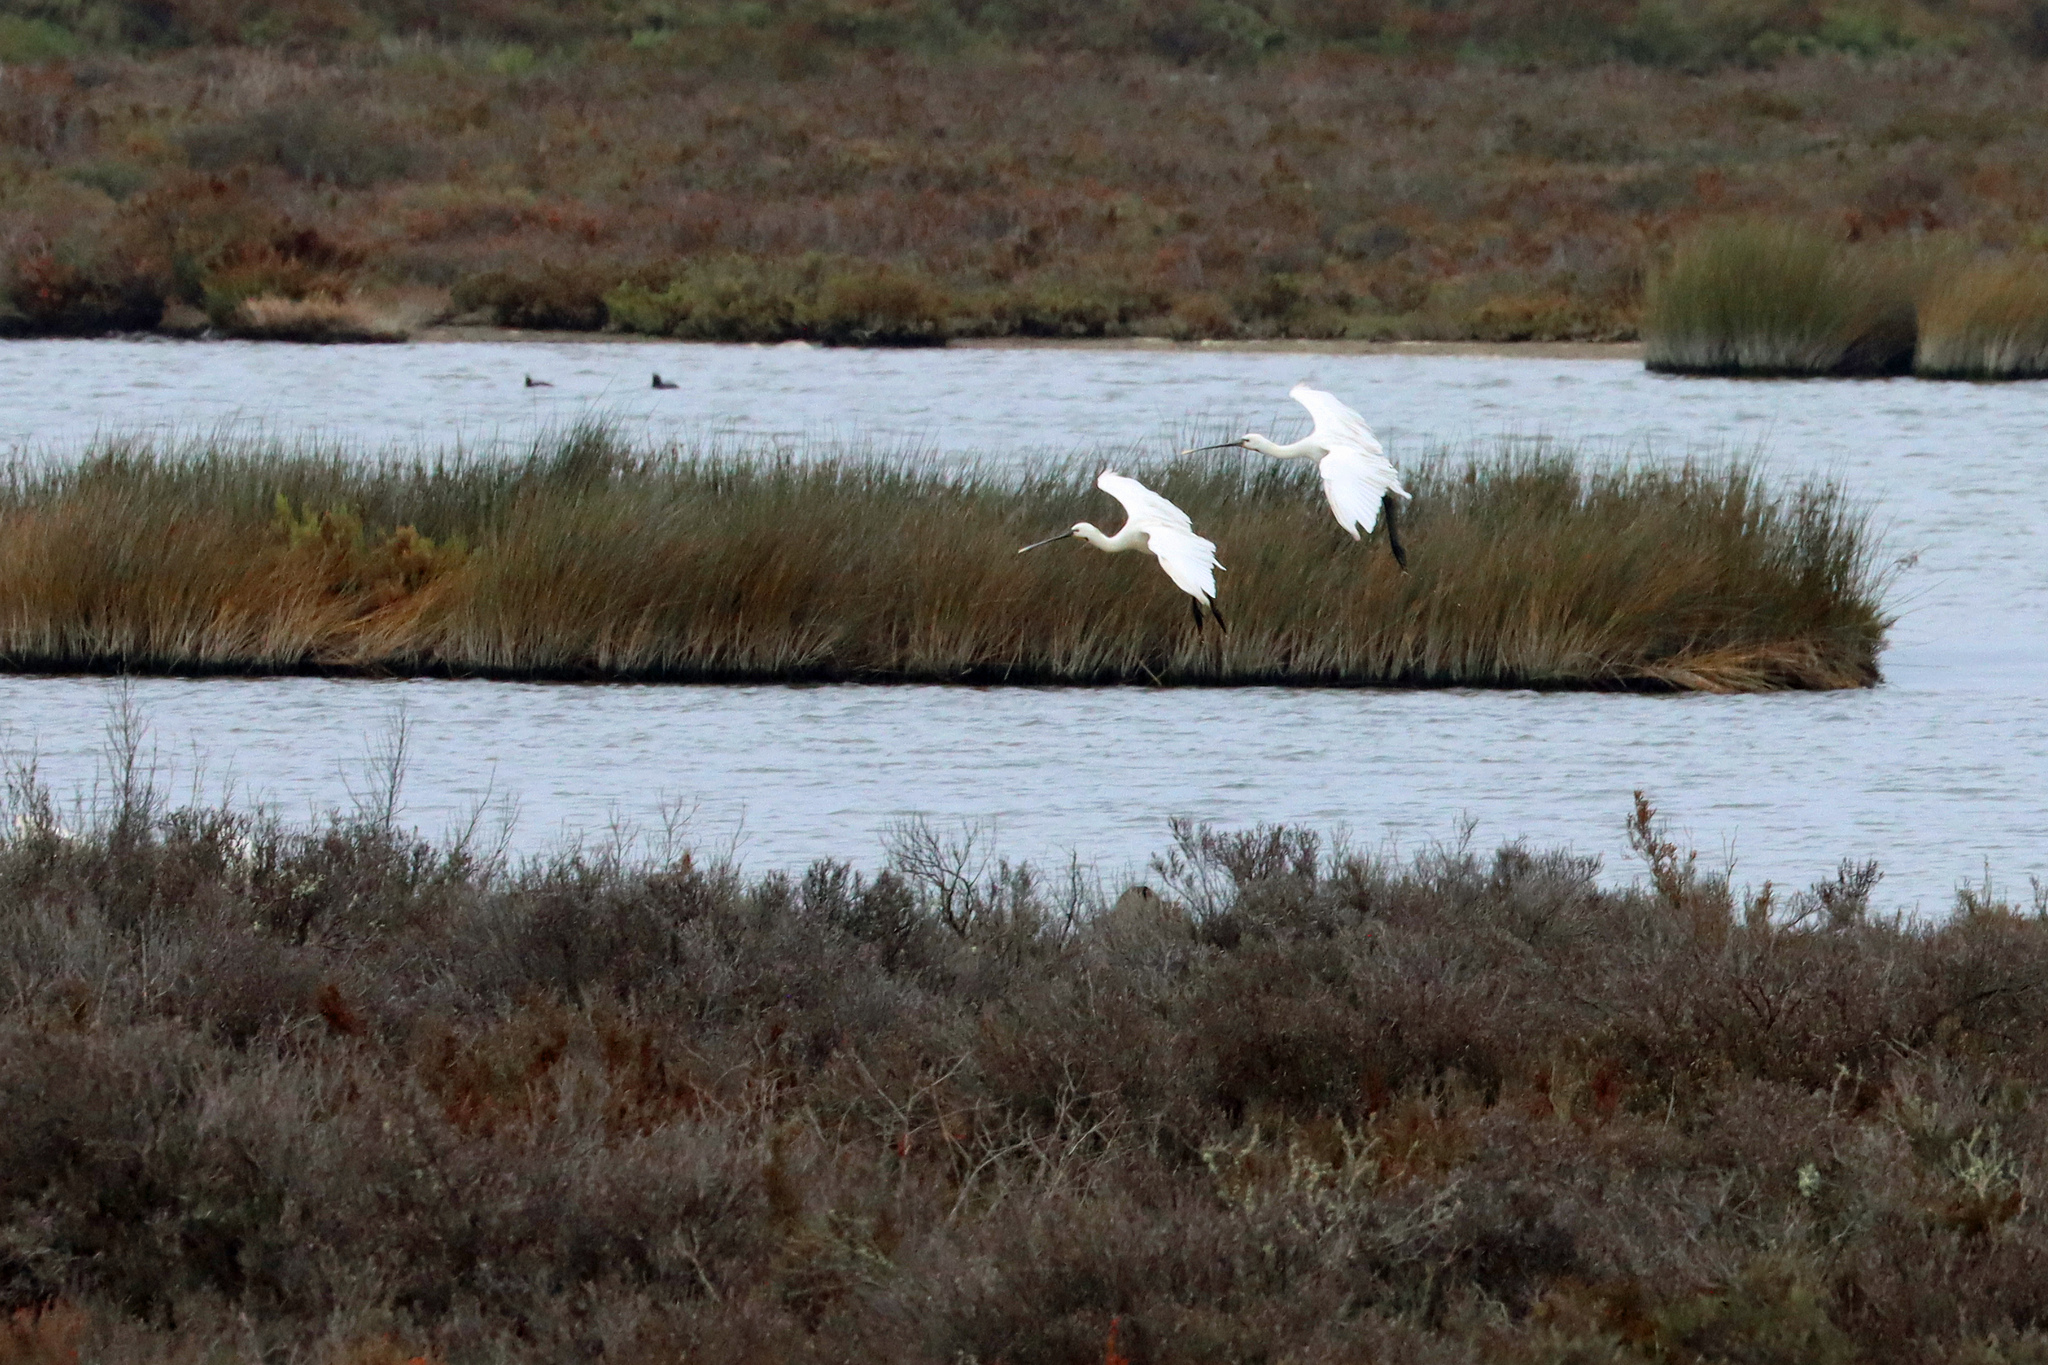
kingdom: Animalia
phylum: Chordata
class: Aves
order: Pelecaniformes
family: Threskiornithidae
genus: Platalea
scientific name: Platalea leucorodia
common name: Eurasian spoonbill
